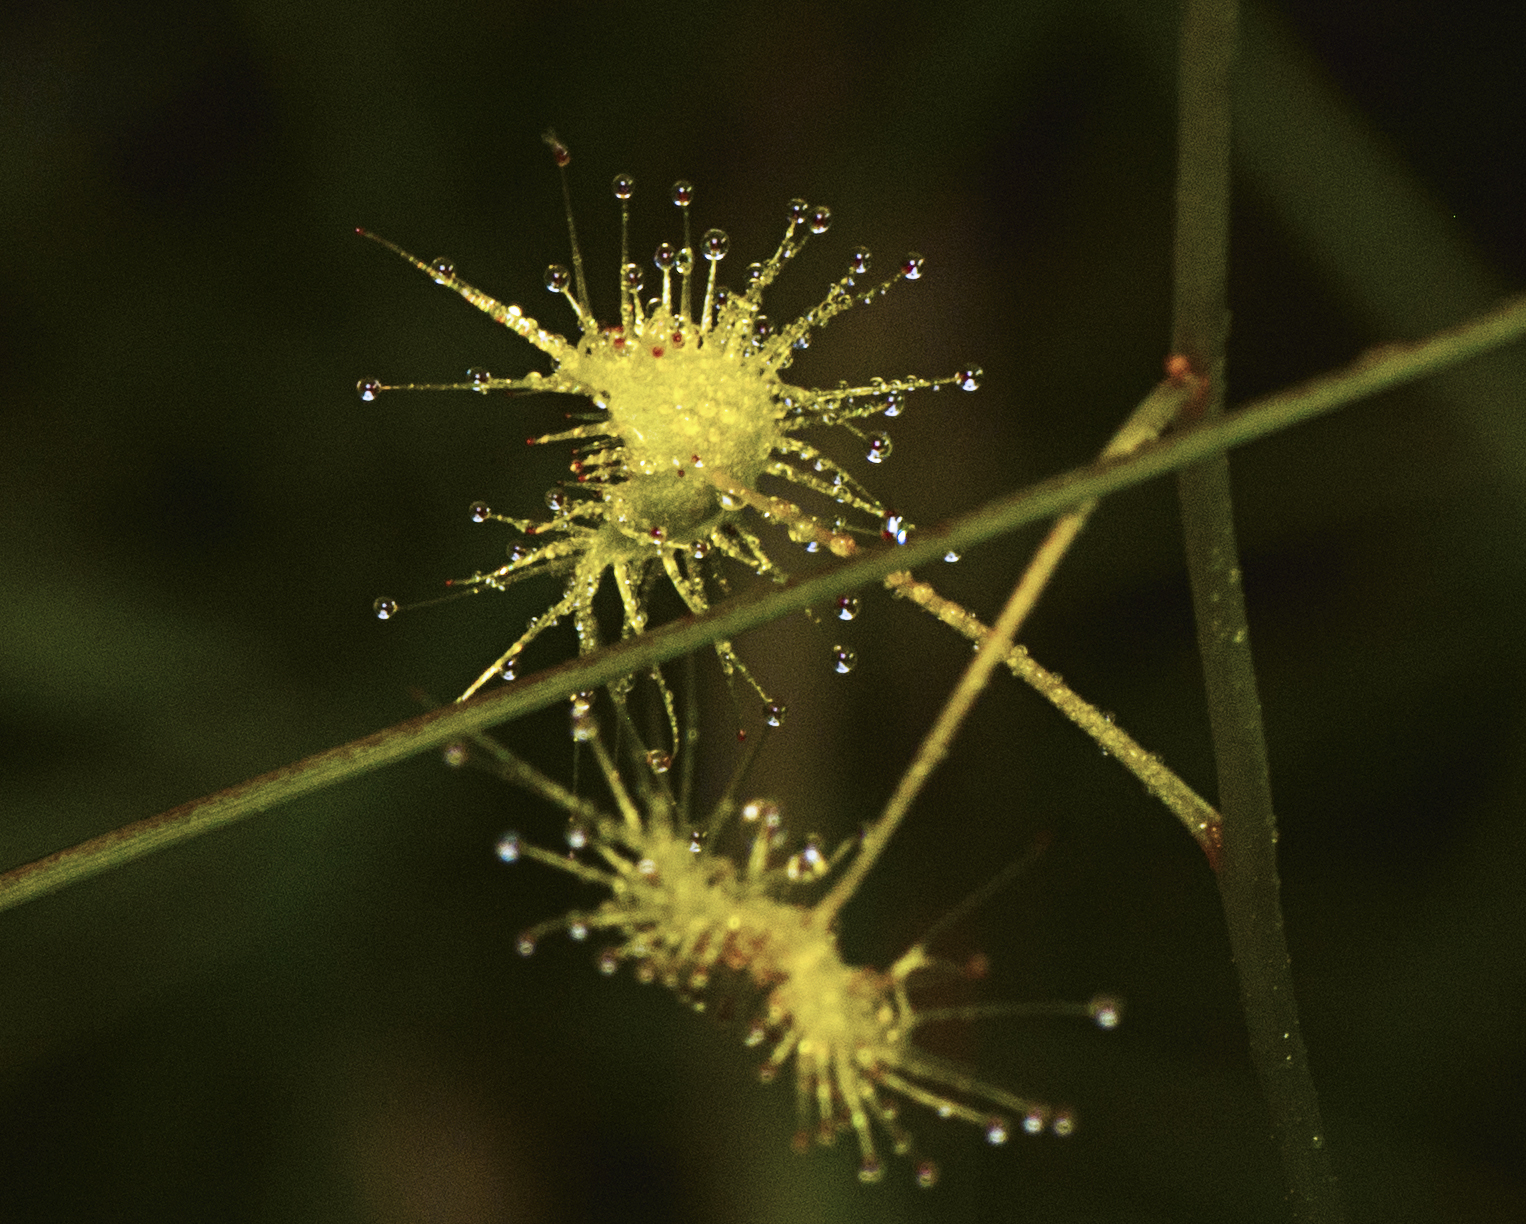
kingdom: Plantae
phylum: Tracheophyta
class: Magnoliopsida
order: Caryophyllales
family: Droseraceae
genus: Drosera
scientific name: Drosera peltata
